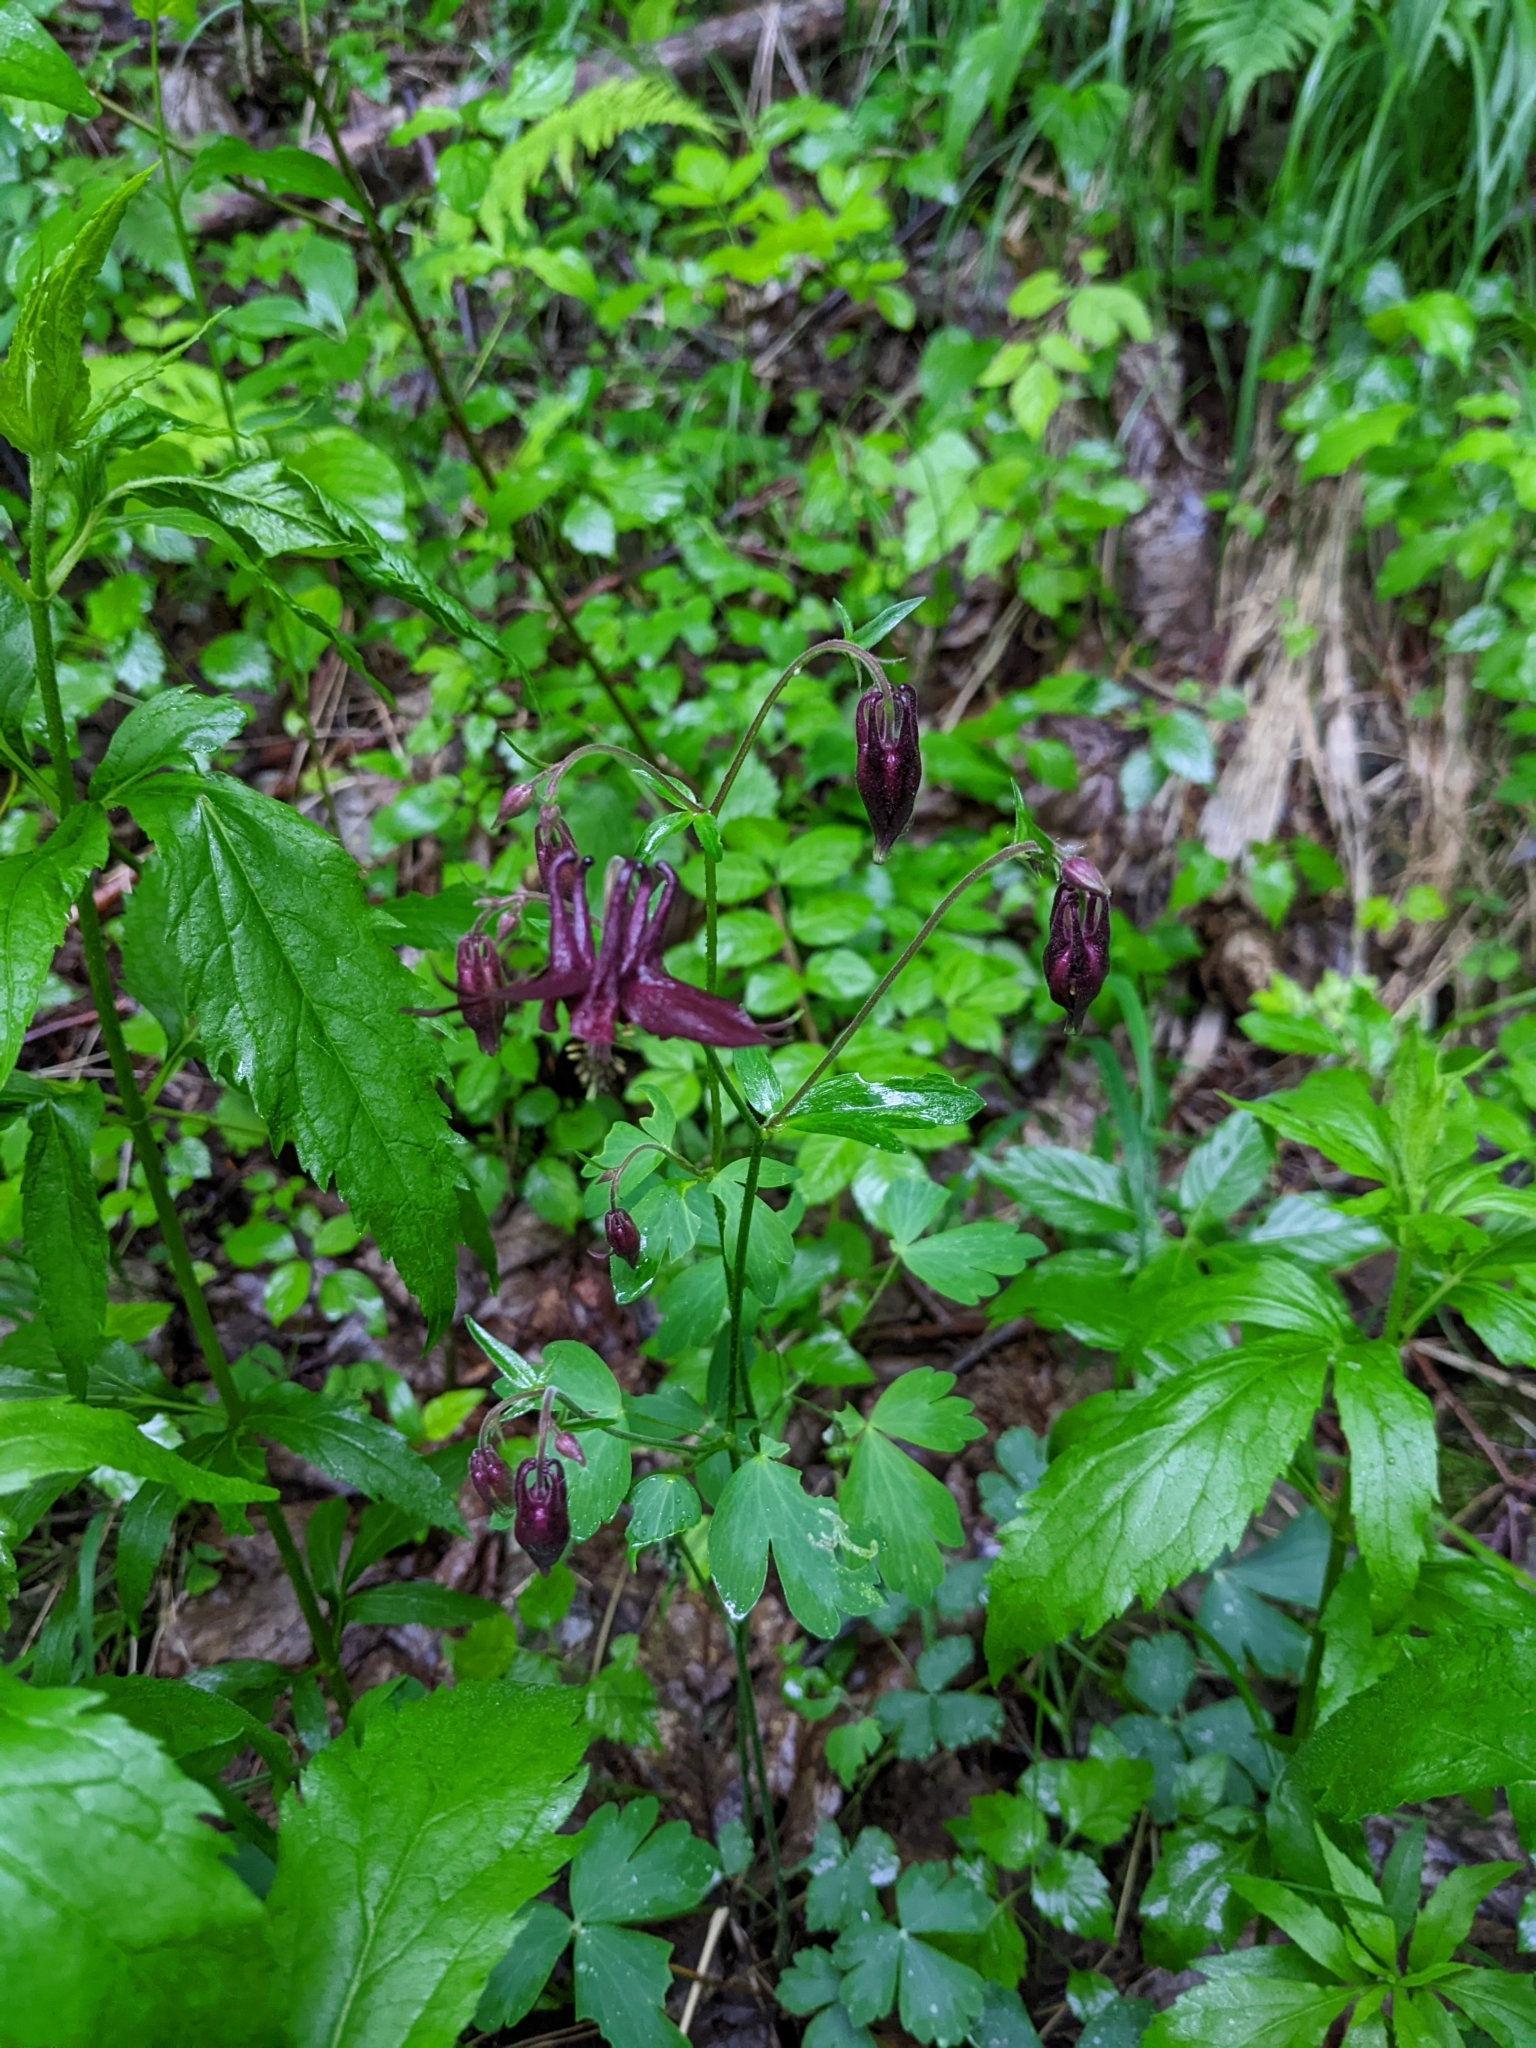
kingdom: Plantae
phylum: Tracheophyta
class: Magnoliopsida
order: Ranunculales
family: Ranunculaceae
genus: Aquilegia
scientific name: Aquilegia atrata
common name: Dark columbine
